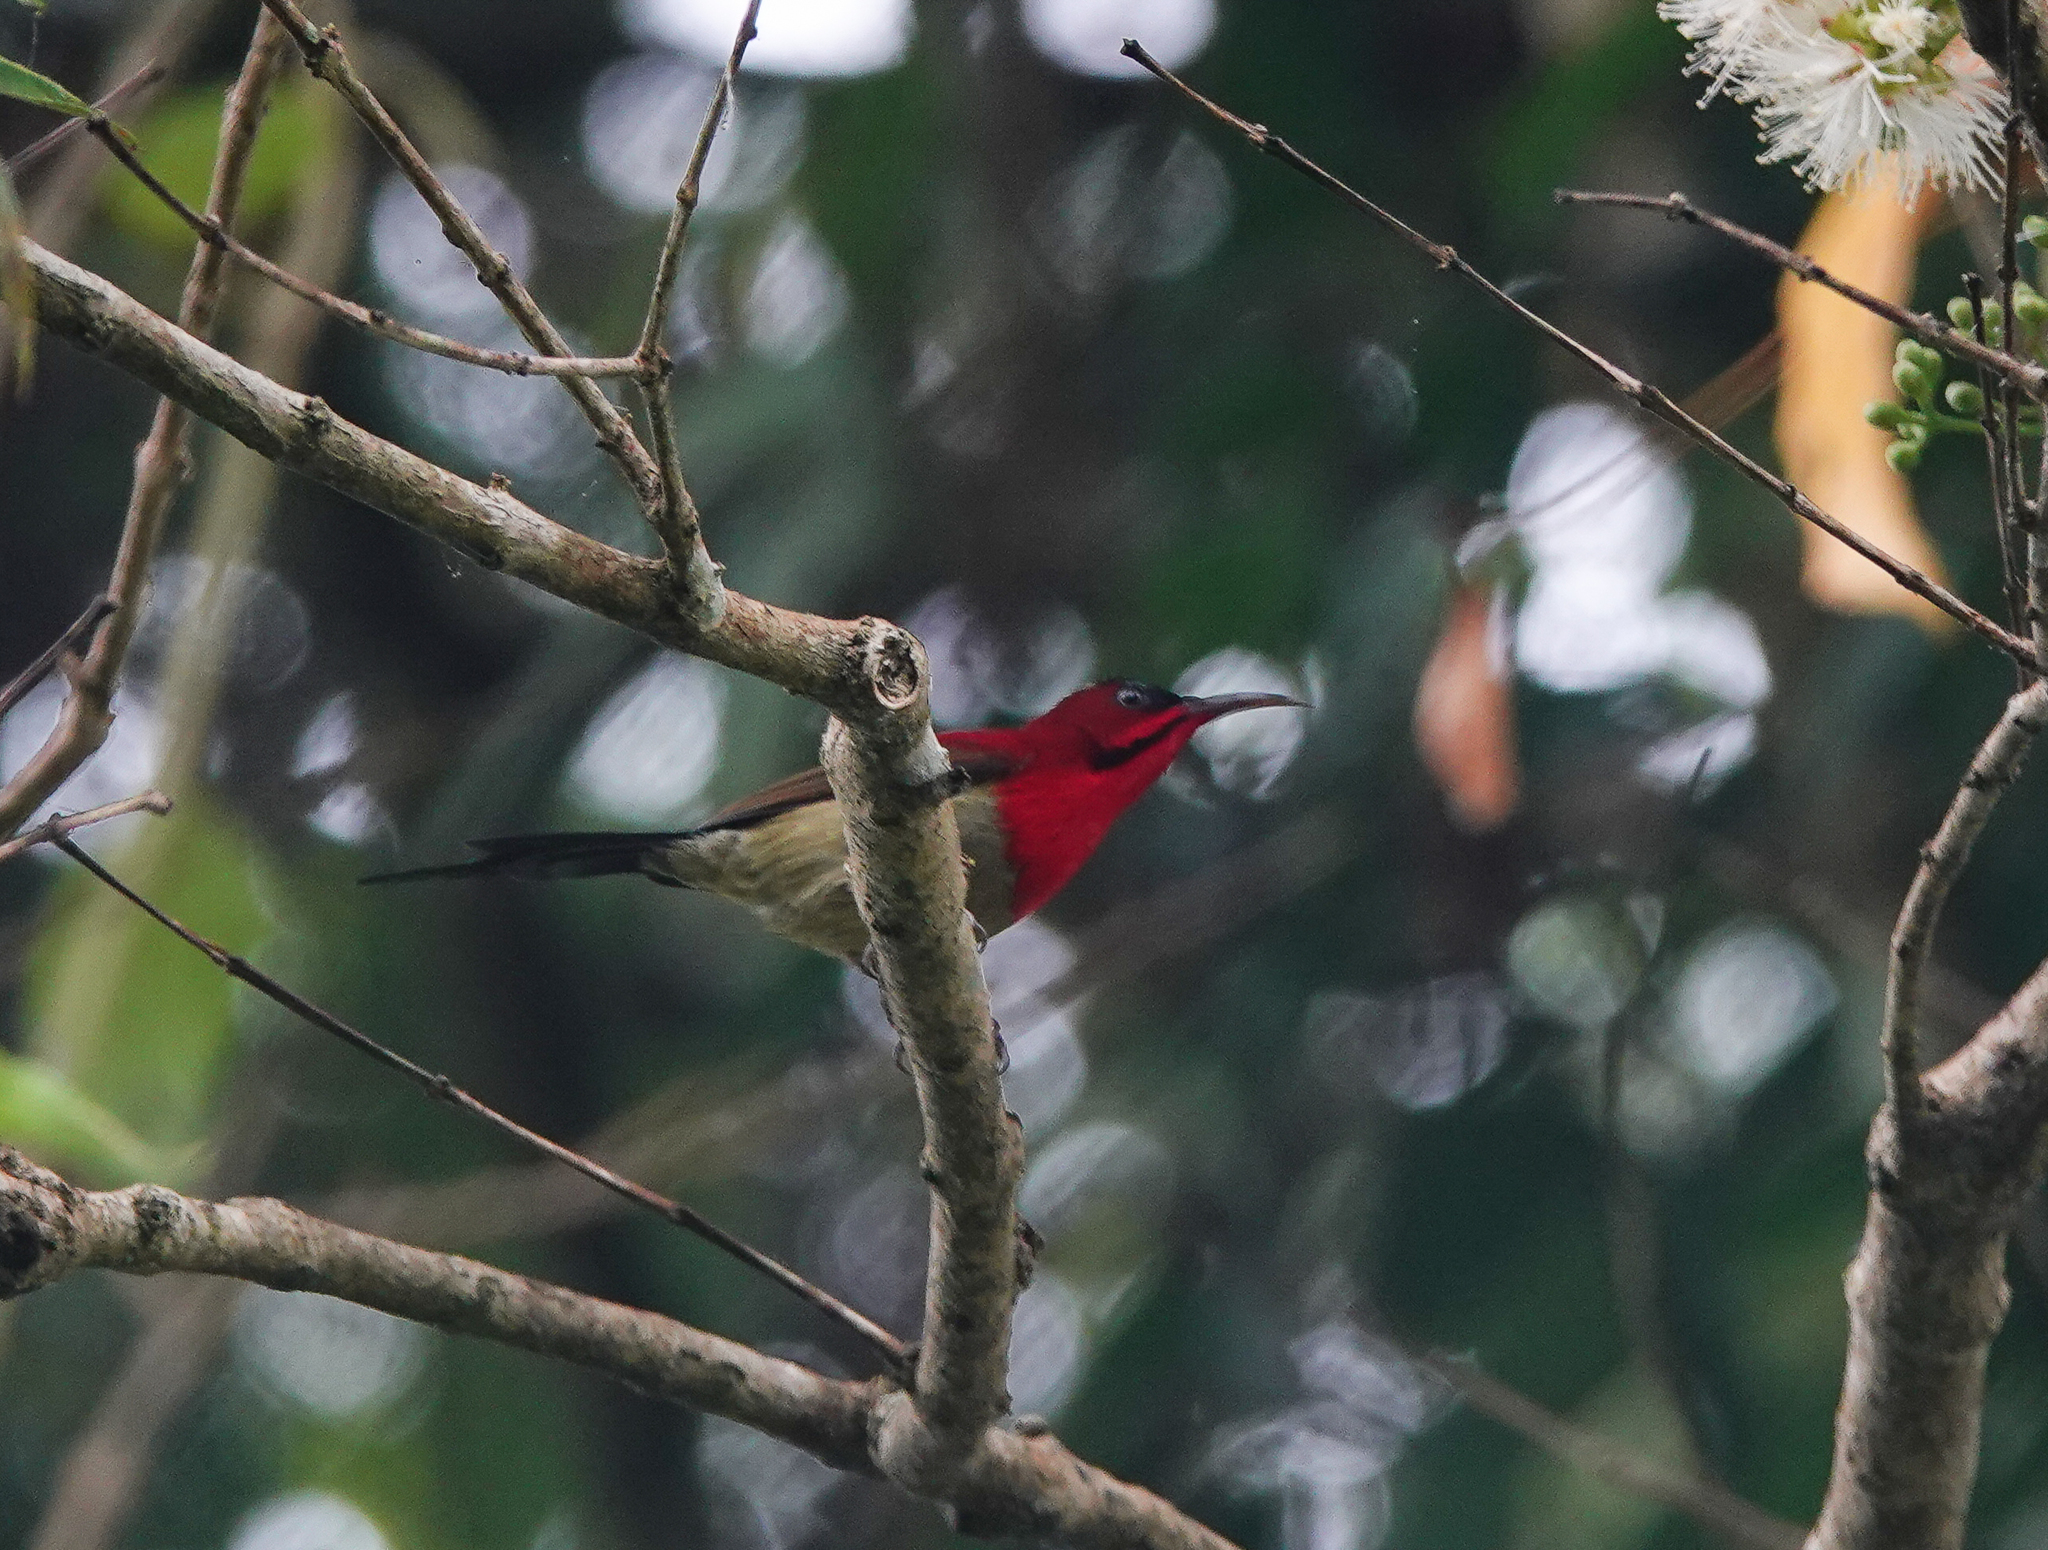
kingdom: Animalia
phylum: Chordata
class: Aves
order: Passeriformes
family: Nectariniidae
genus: Aethopyga
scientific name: Aethopyga siparaja
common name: Crimson sunbird
